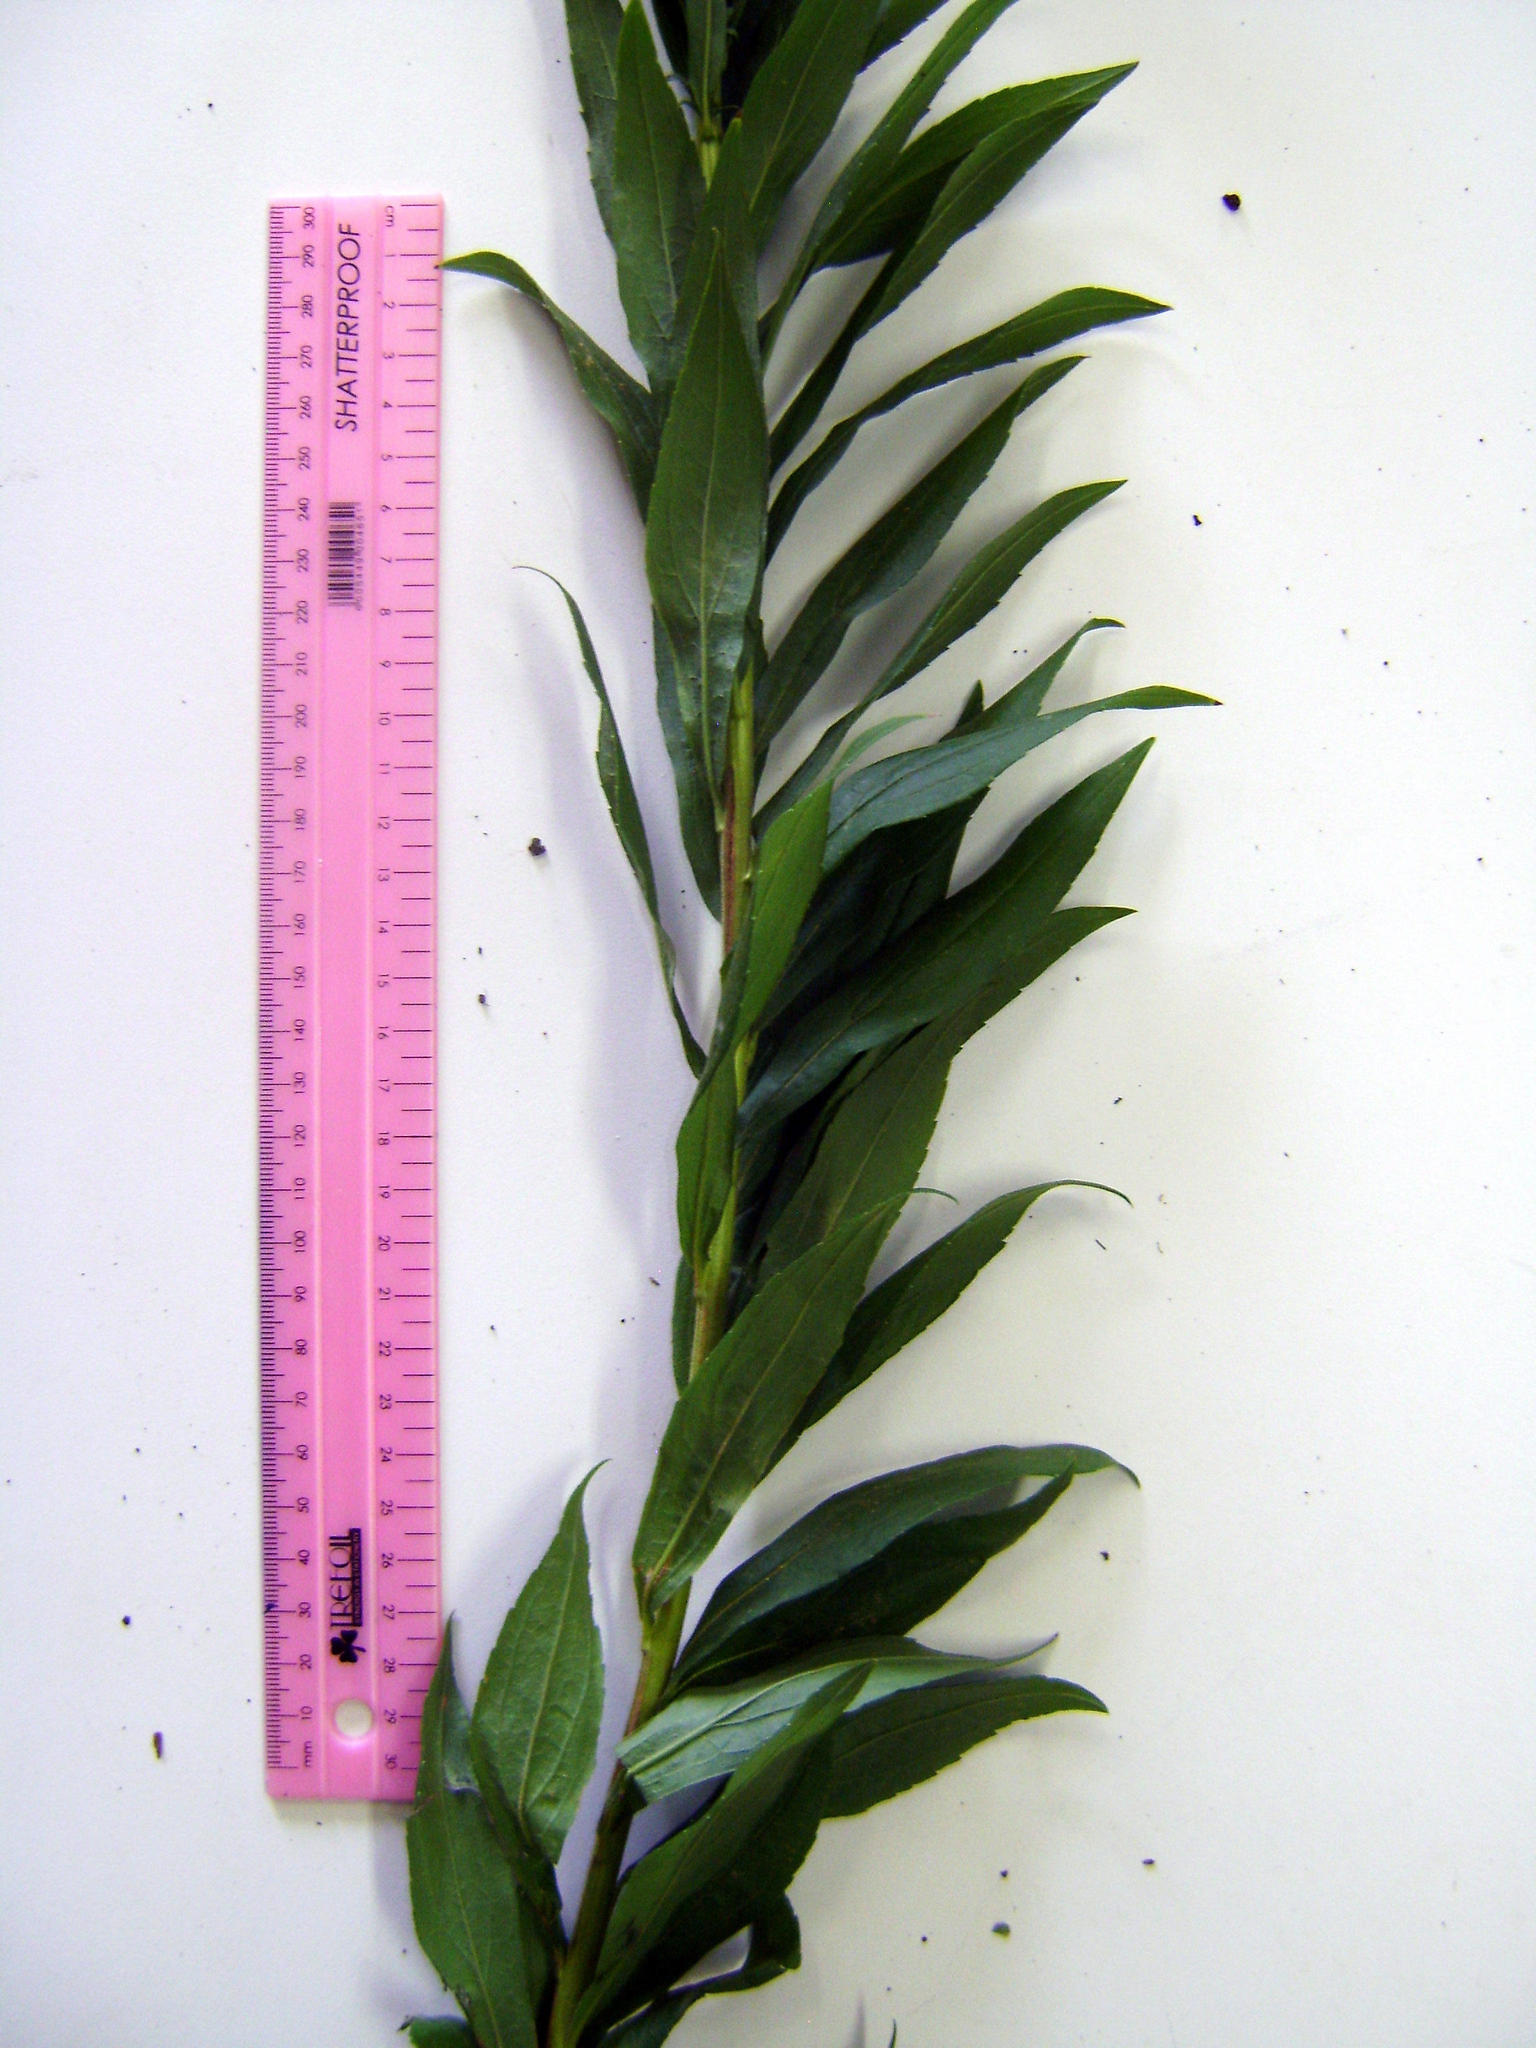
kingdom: Plantae
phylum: Tracheophyta
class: Magnoliopsida
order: Asterales
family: Asteraceae
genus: Solidago
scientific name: Solidago altissima
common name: Late goldenrod
